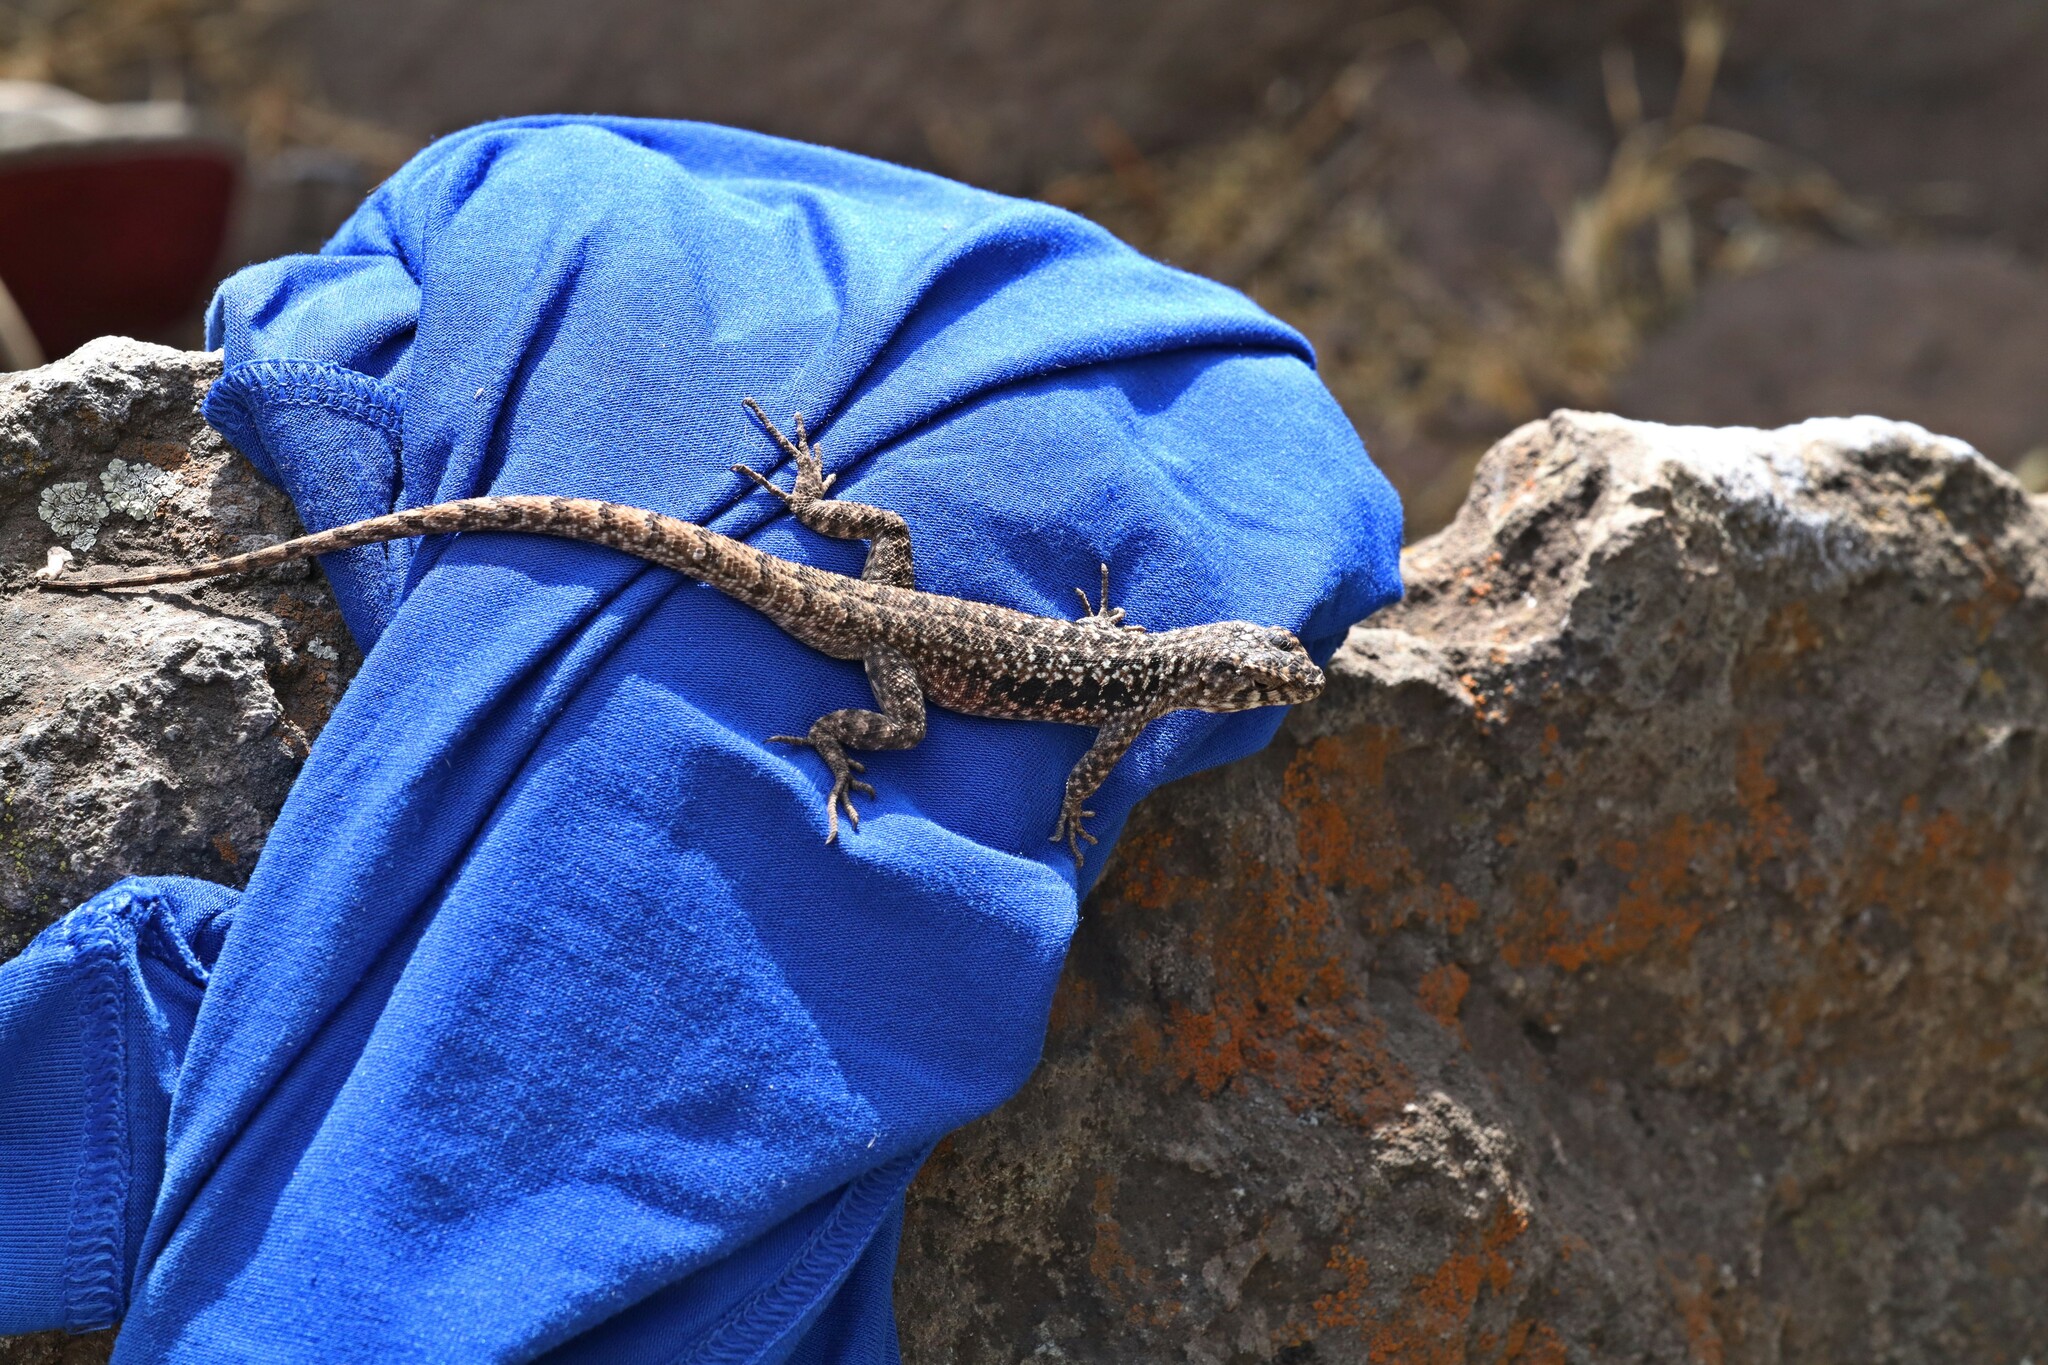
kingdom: Animalia
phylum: Chordata
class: Squamata
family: Liolaemidae
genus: Liolaemus
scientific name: Liolaemus monticola
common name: Peak tree iguana
